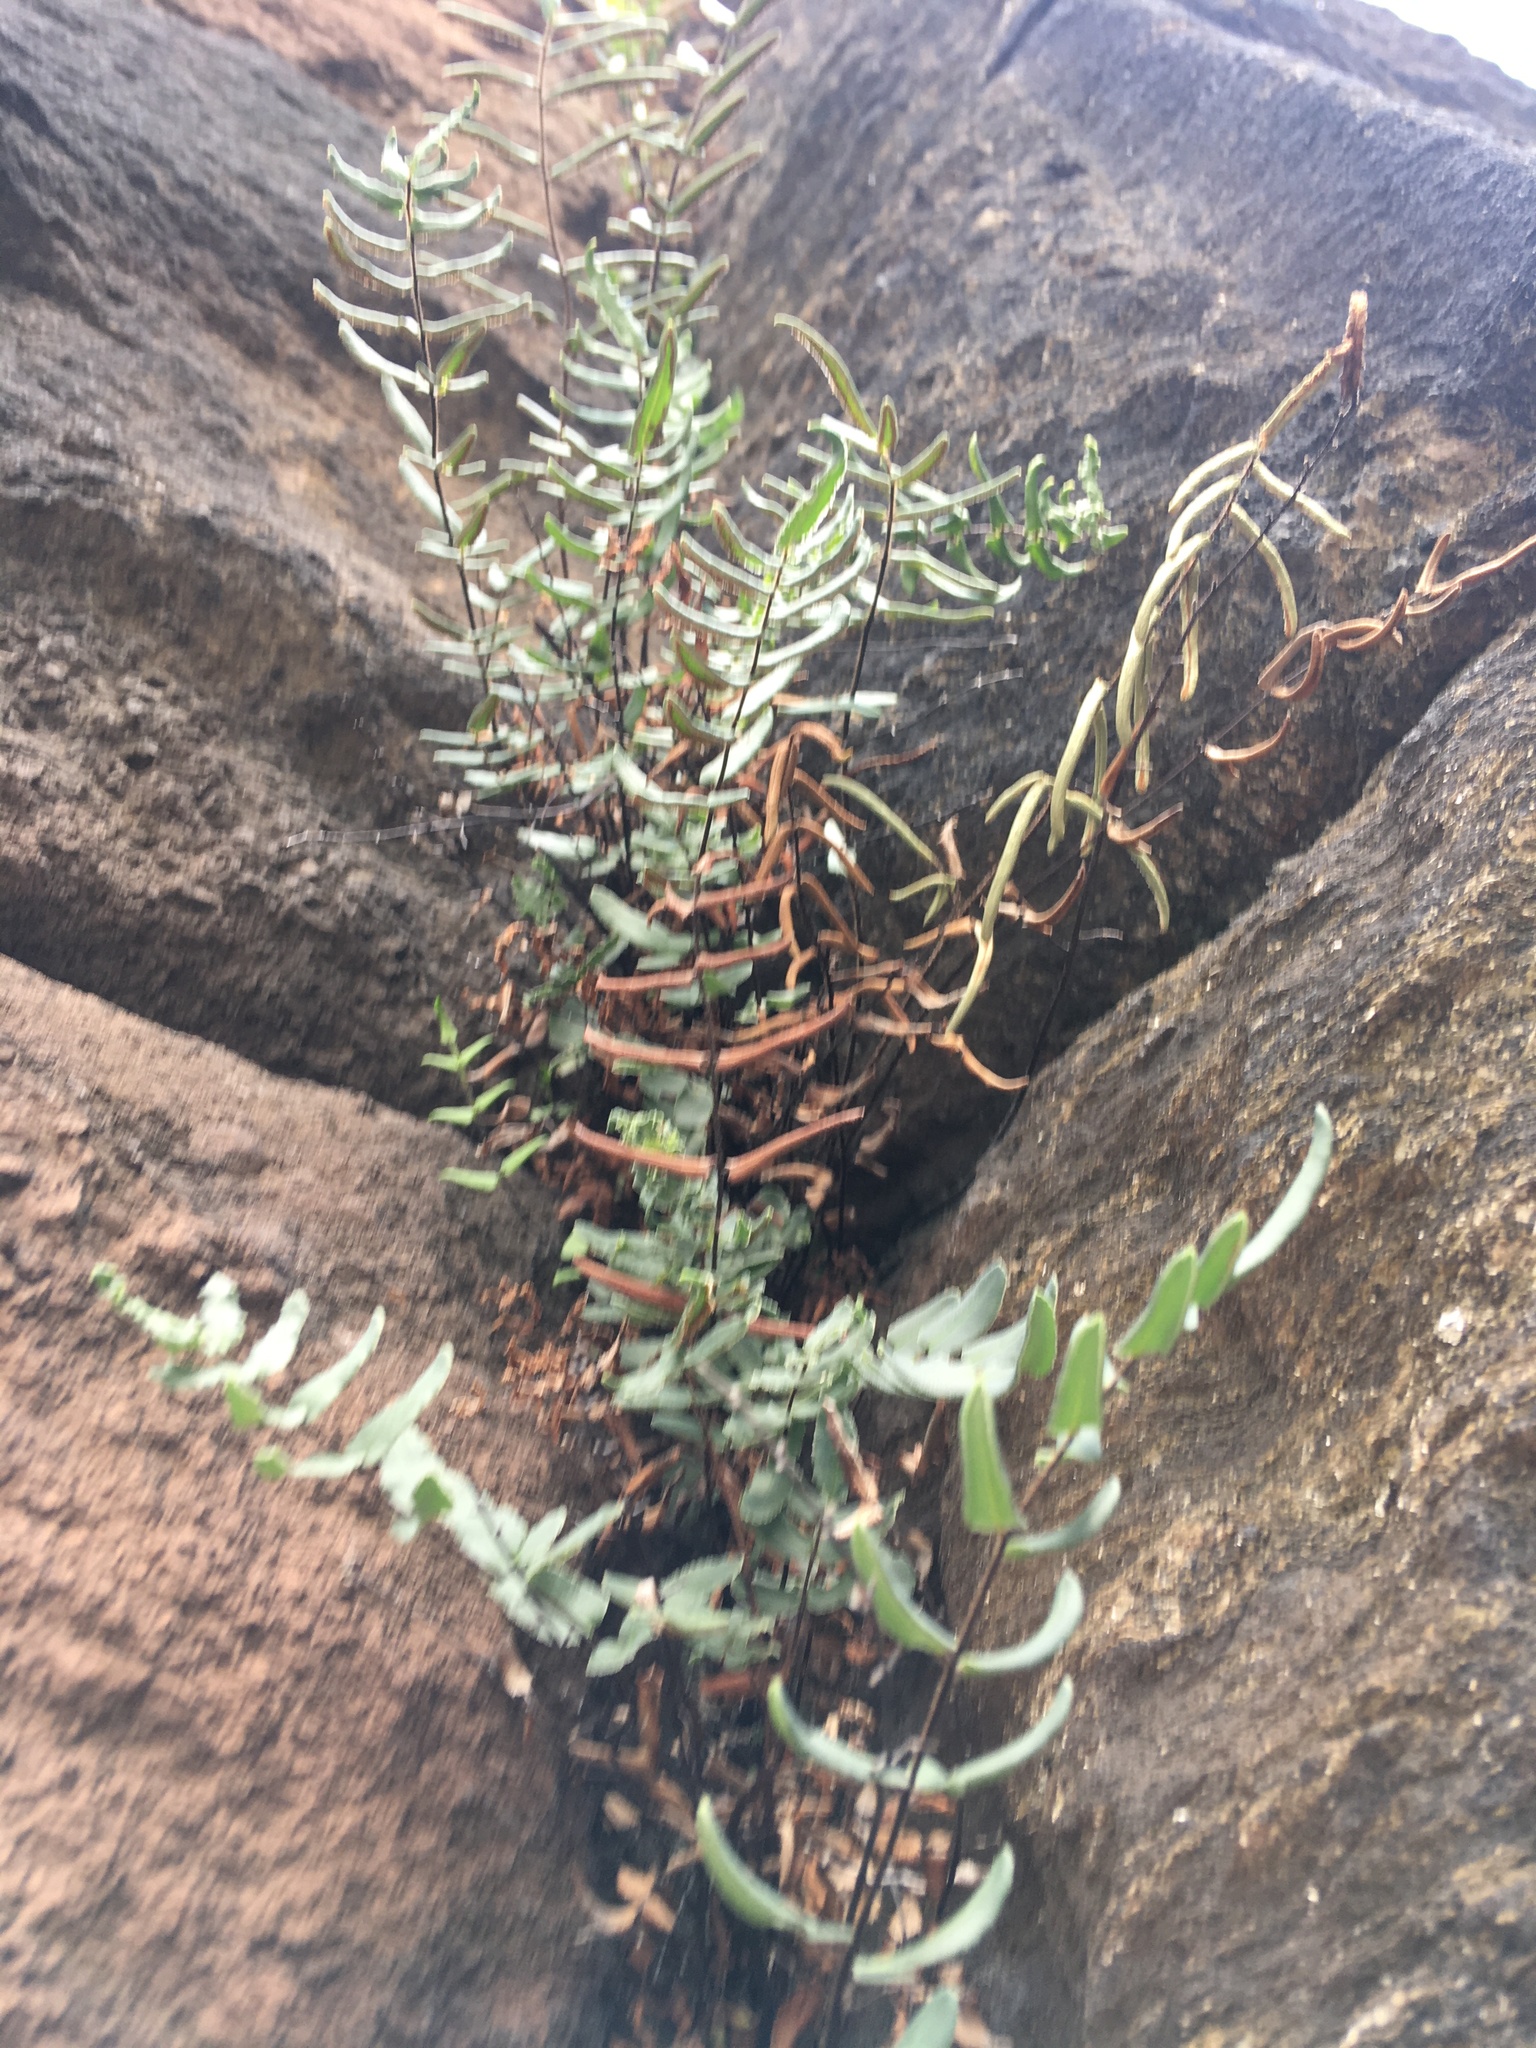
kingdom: Plantae
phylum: Tracheophyta
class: Polypodiopsida
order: Polypodiales
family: Pteridaceae
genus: Pellaea
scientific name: Pellaea atropurpurea
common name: Hairy cliffbrake
